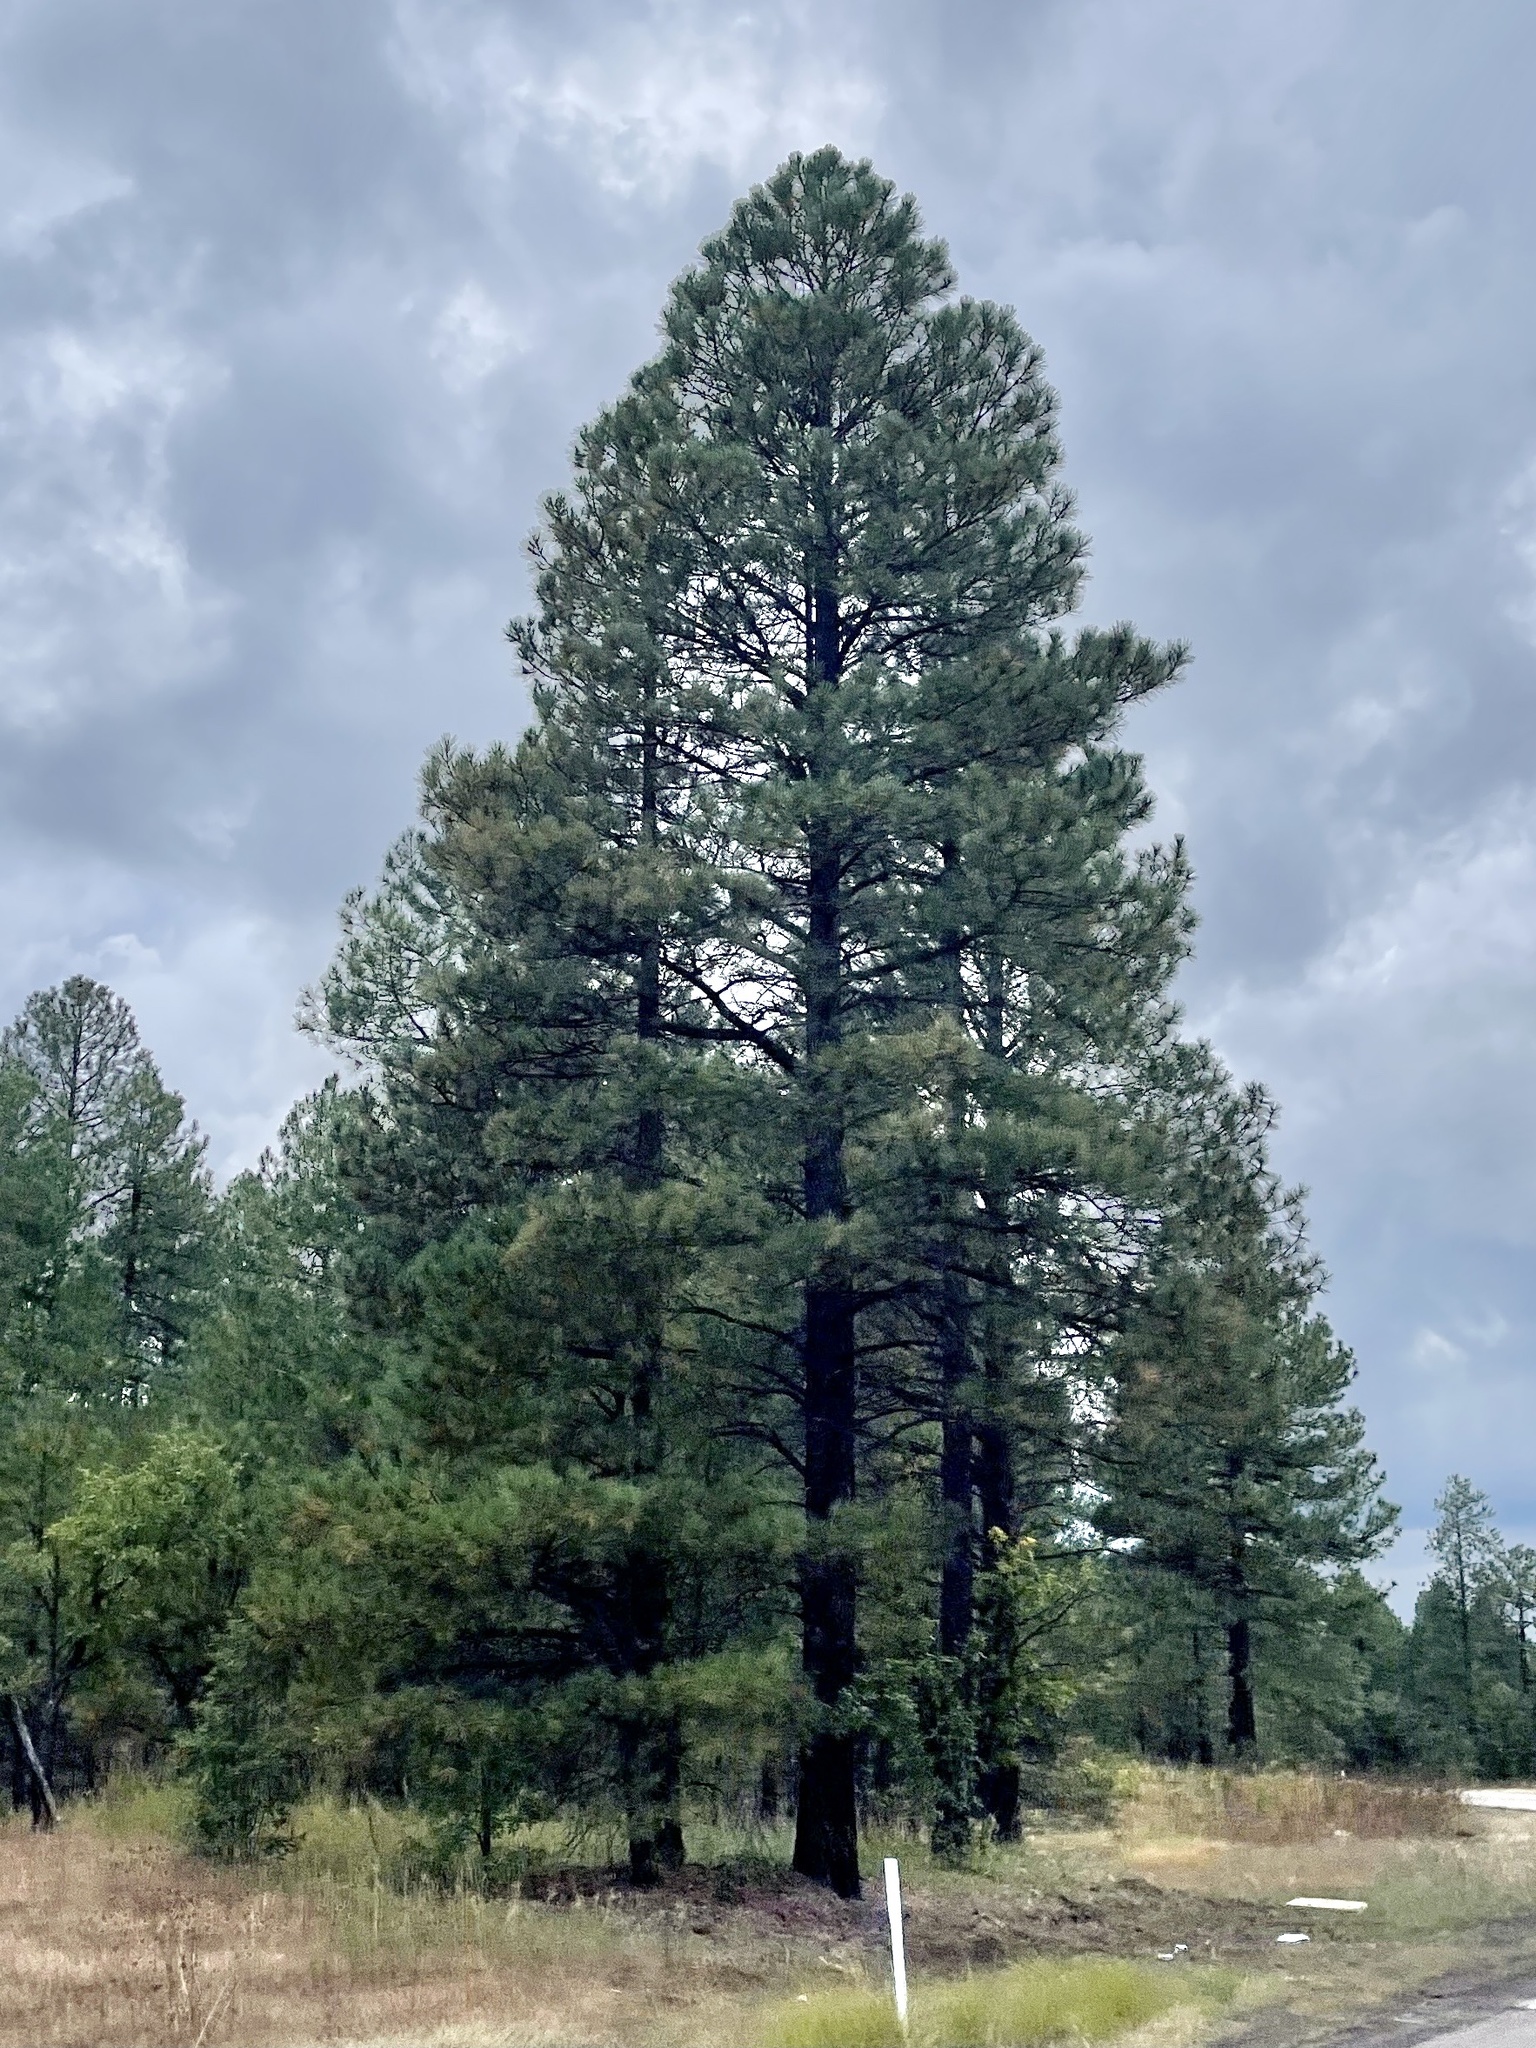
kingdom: Plantae
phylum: Tracheophyta
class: Pinopsida
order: Pinales
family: Pinaceae
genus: Pinus
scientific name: Pinus ponderosa
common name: Western yellow-pine
